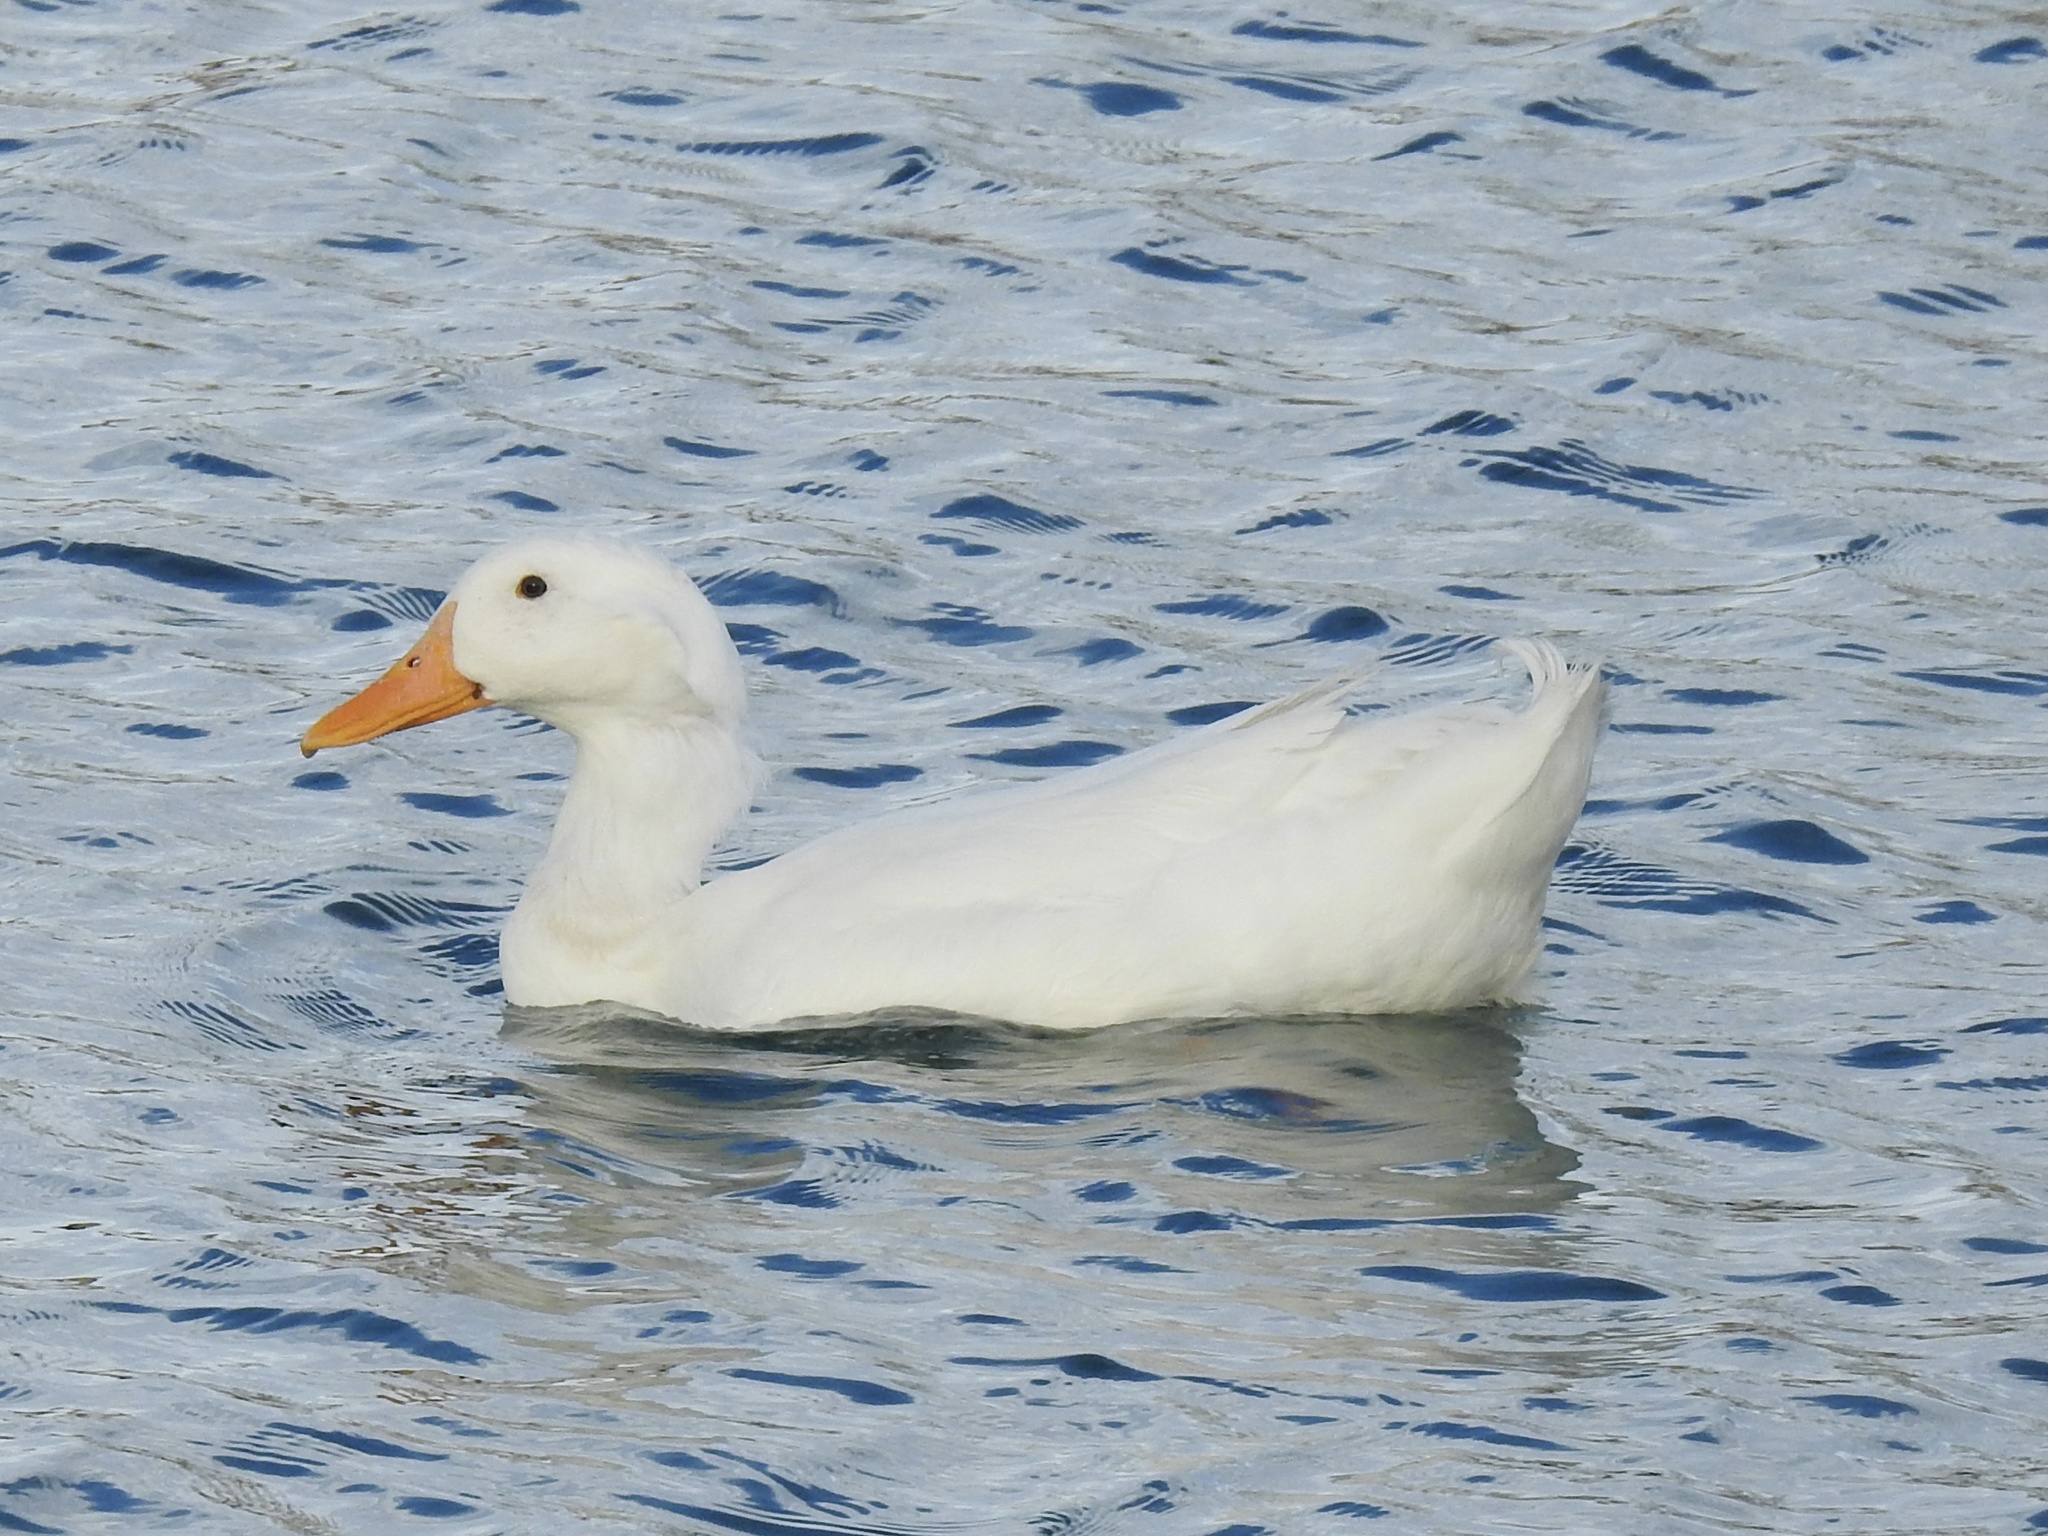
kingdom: Animalia
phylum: Chordata
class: Aves
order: Anseriformes
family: Anatidae
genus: Anas
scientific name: Anas platyrhynchos
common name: Mallard
